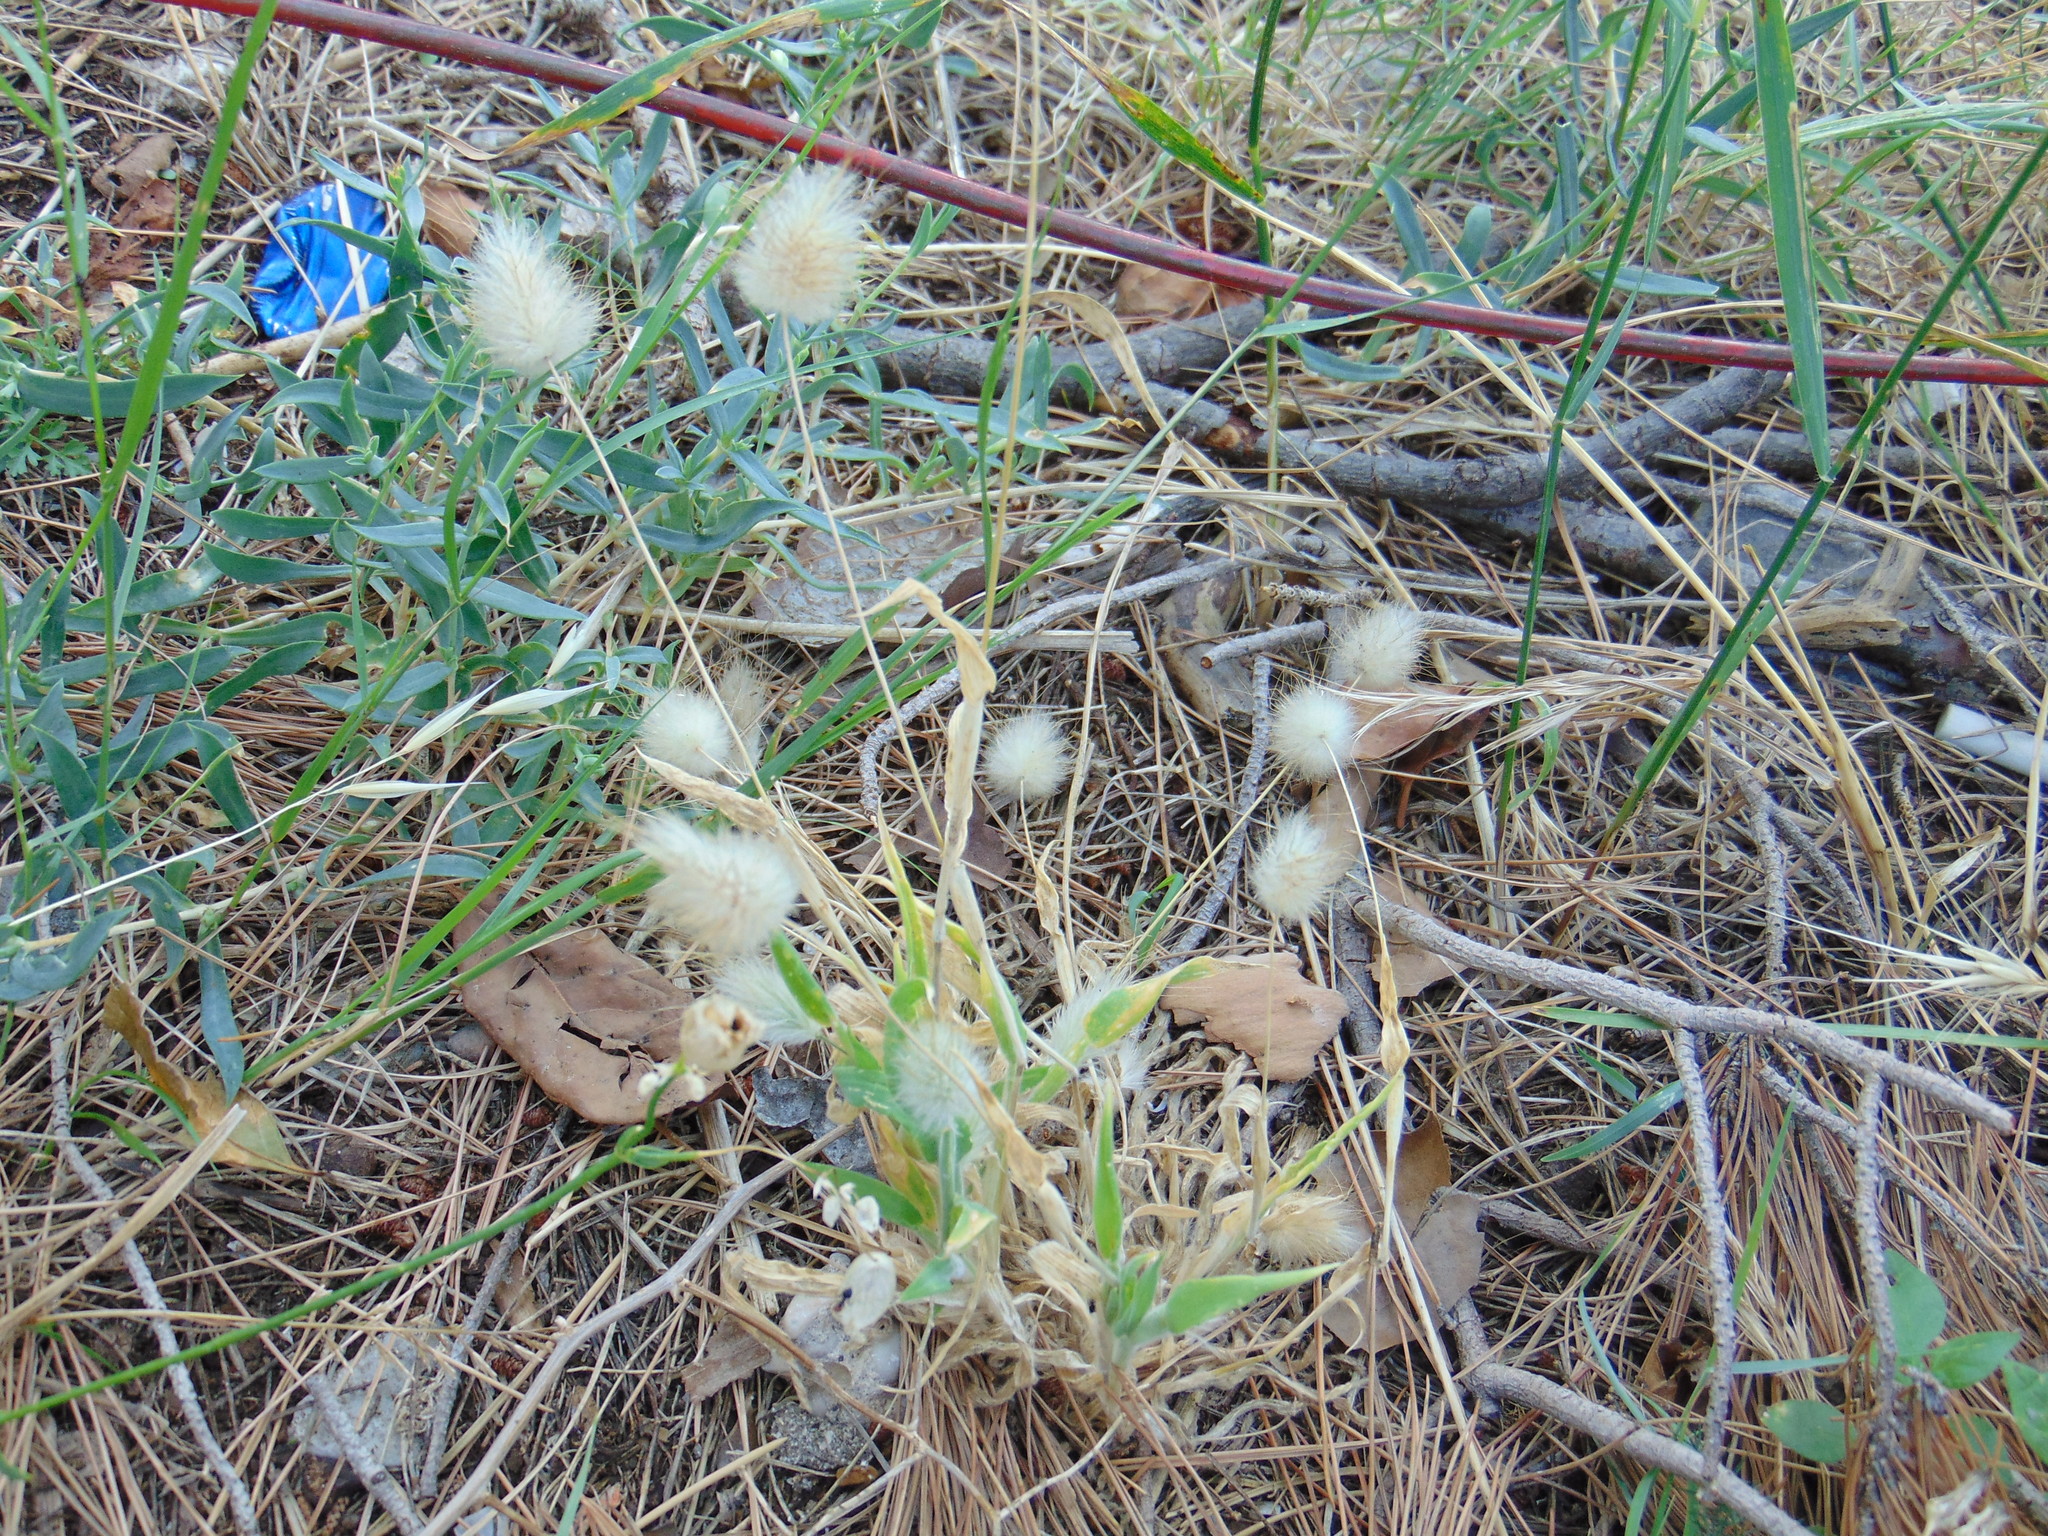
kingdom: Plantae
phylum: Tracheophyta
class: Liliopsida
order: Poales
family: Poaceae
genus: Lagurus
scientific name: Lagurus ovatus
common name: Hare's-tail
